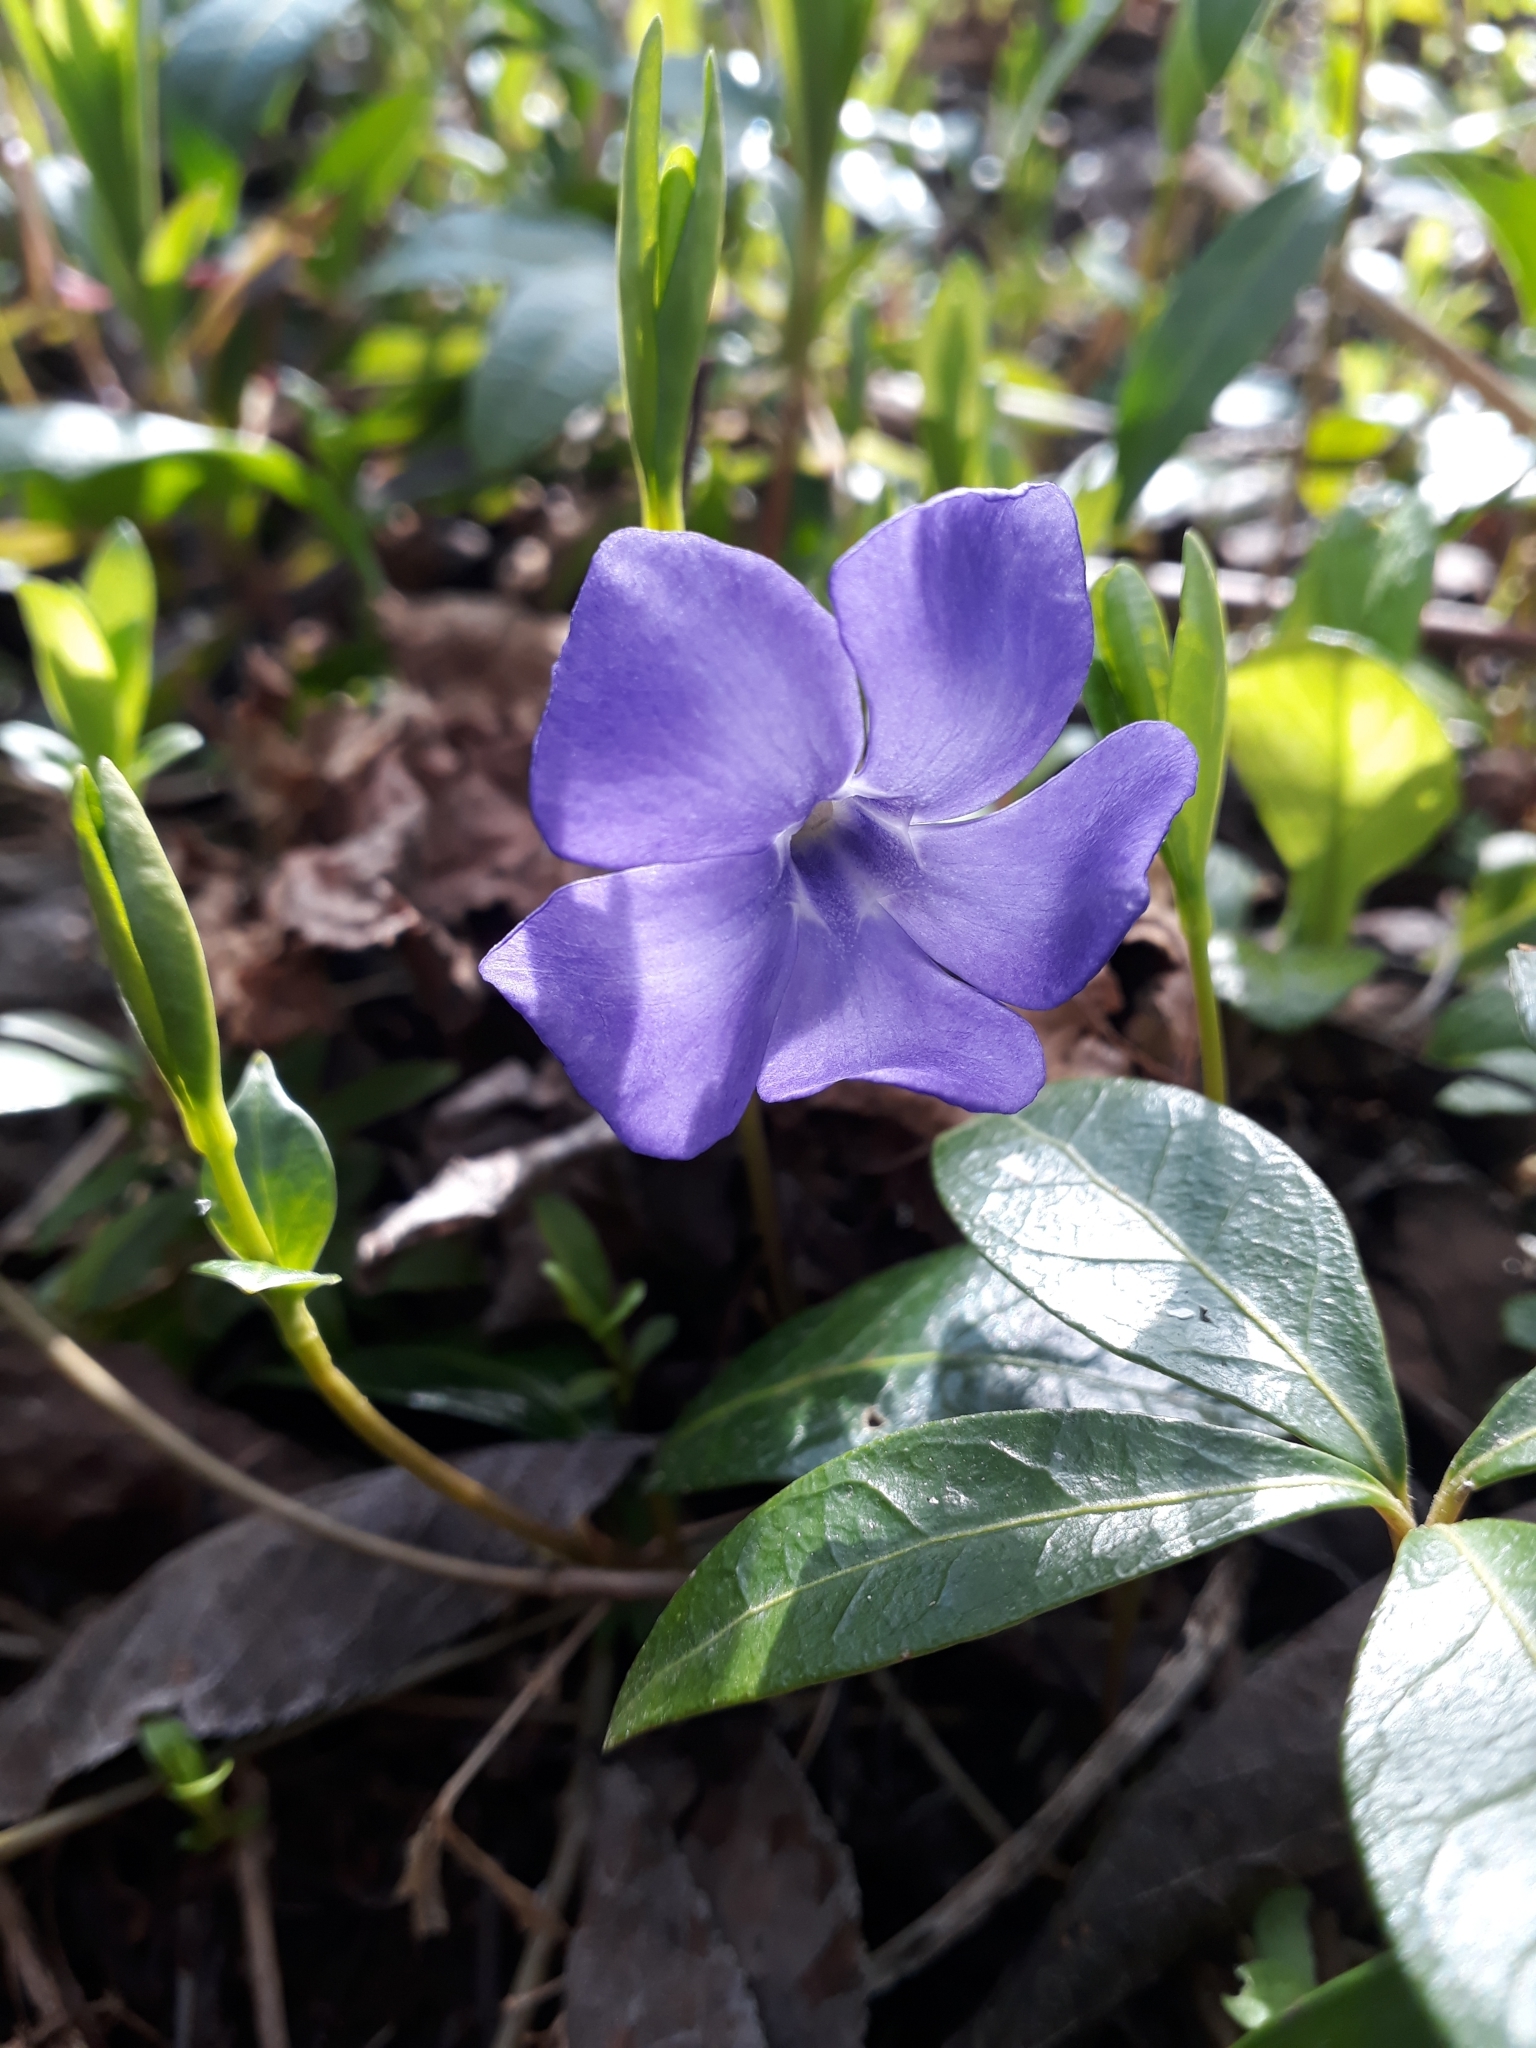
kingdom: Plantae
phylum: Tracheophyta
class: Magnoliopsida
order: Gentianales
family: Apocynaceae
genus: Vinca
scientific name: Vinca minor
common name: Lesser periwinkle
